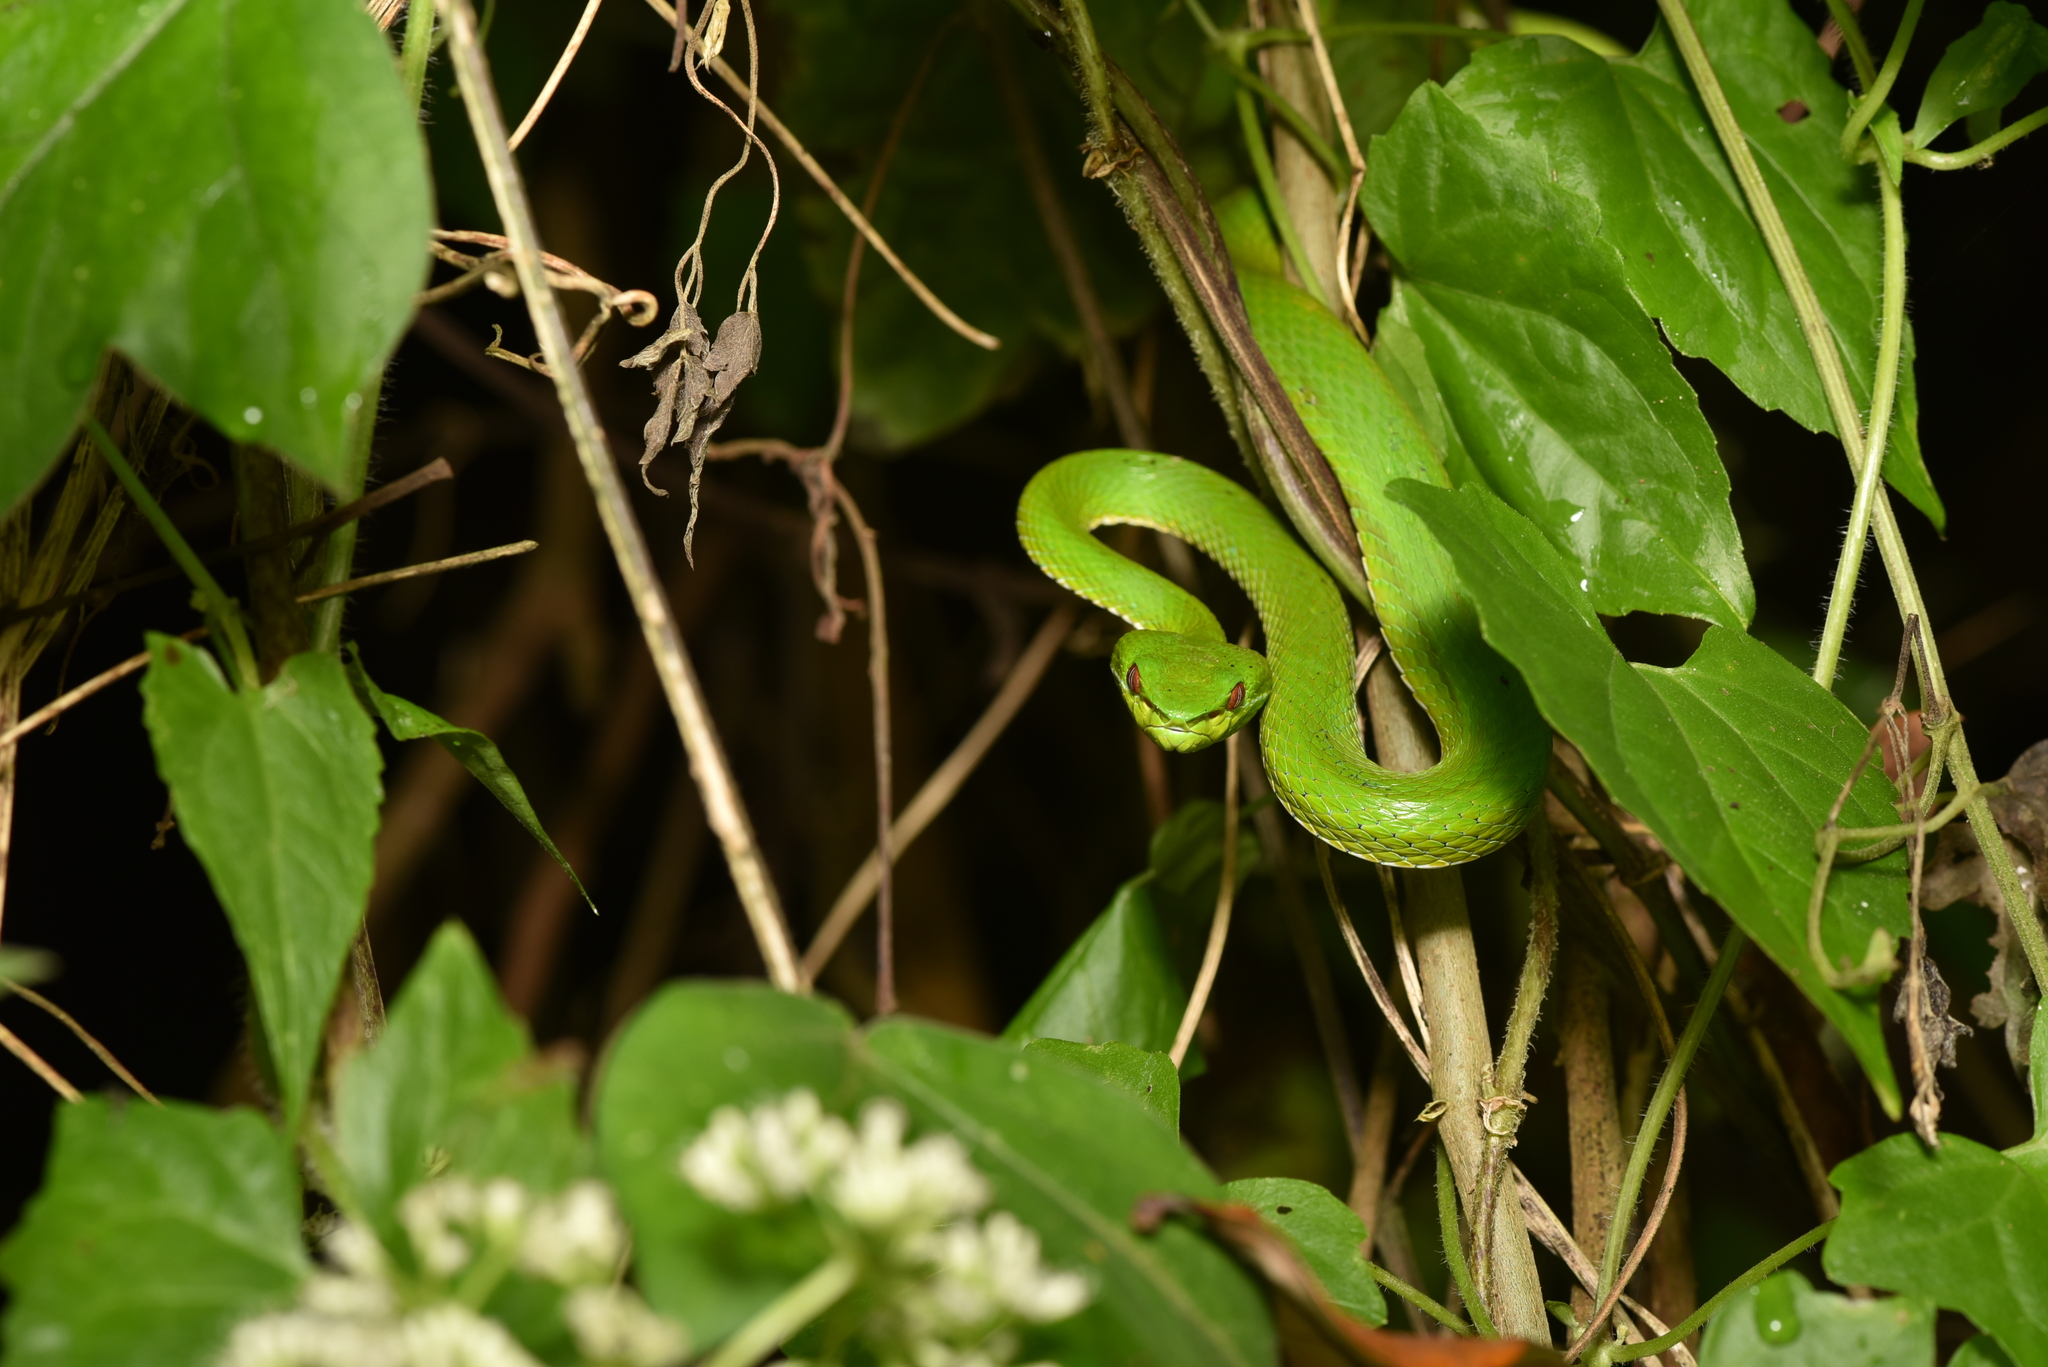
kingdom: Animalia
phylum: Chordata
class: Squamata
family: Viperidae
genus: Trimeresurus
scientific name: Trimeresurus stejnegeri
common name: Chen’s bamboo pit viper
